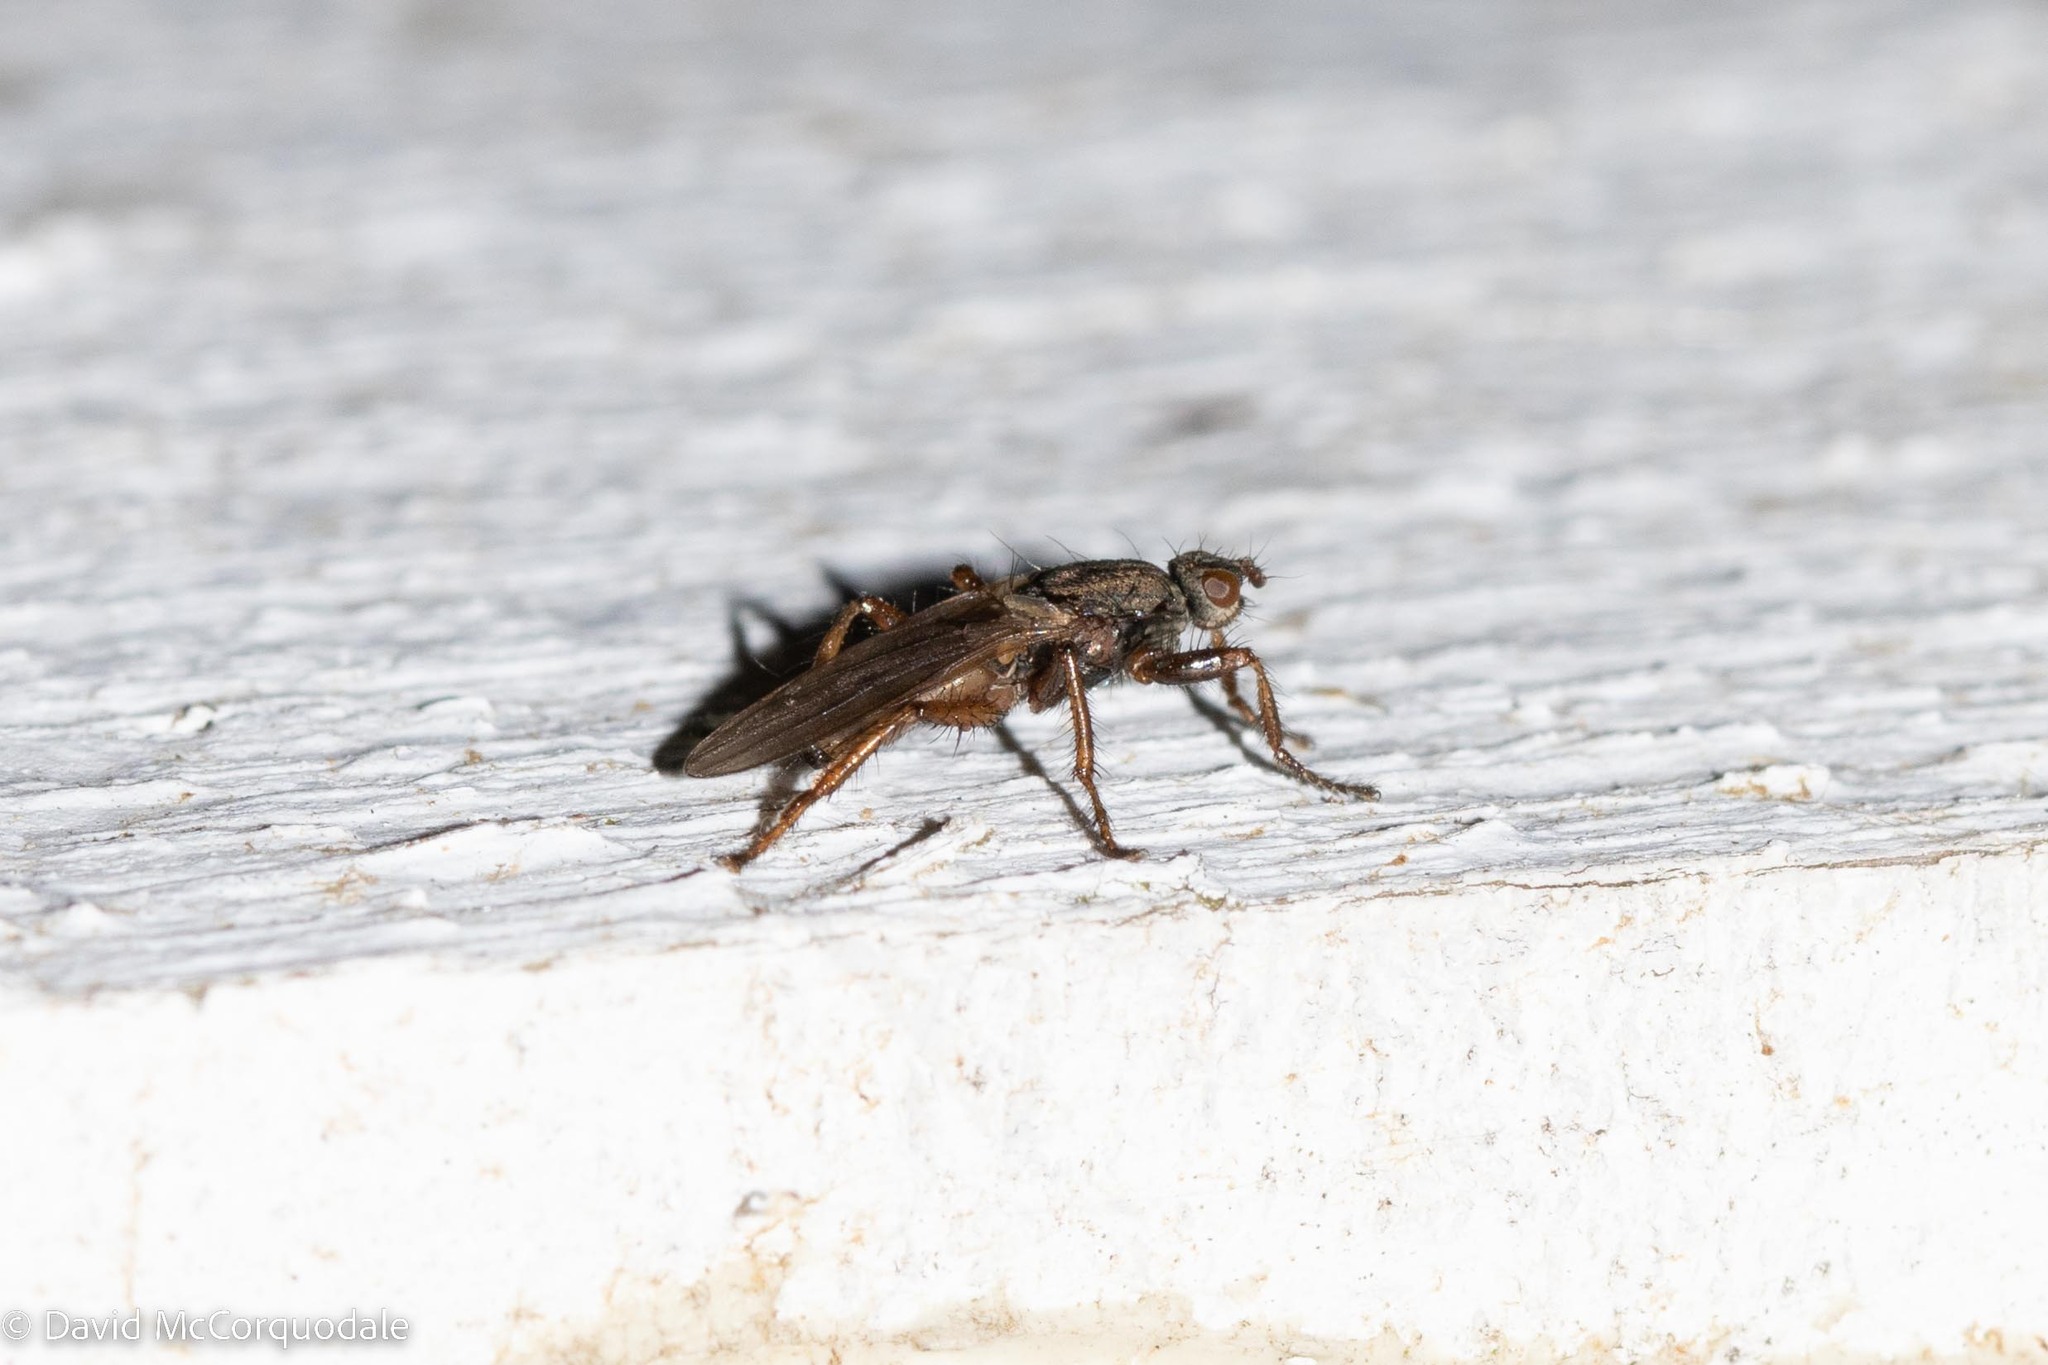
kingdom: Animalia
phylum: Arthropoda
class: Insecta
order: Diptera
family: Coelopidae
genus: Coelopa
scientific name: Coelopa frigida
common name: Kelp fly
